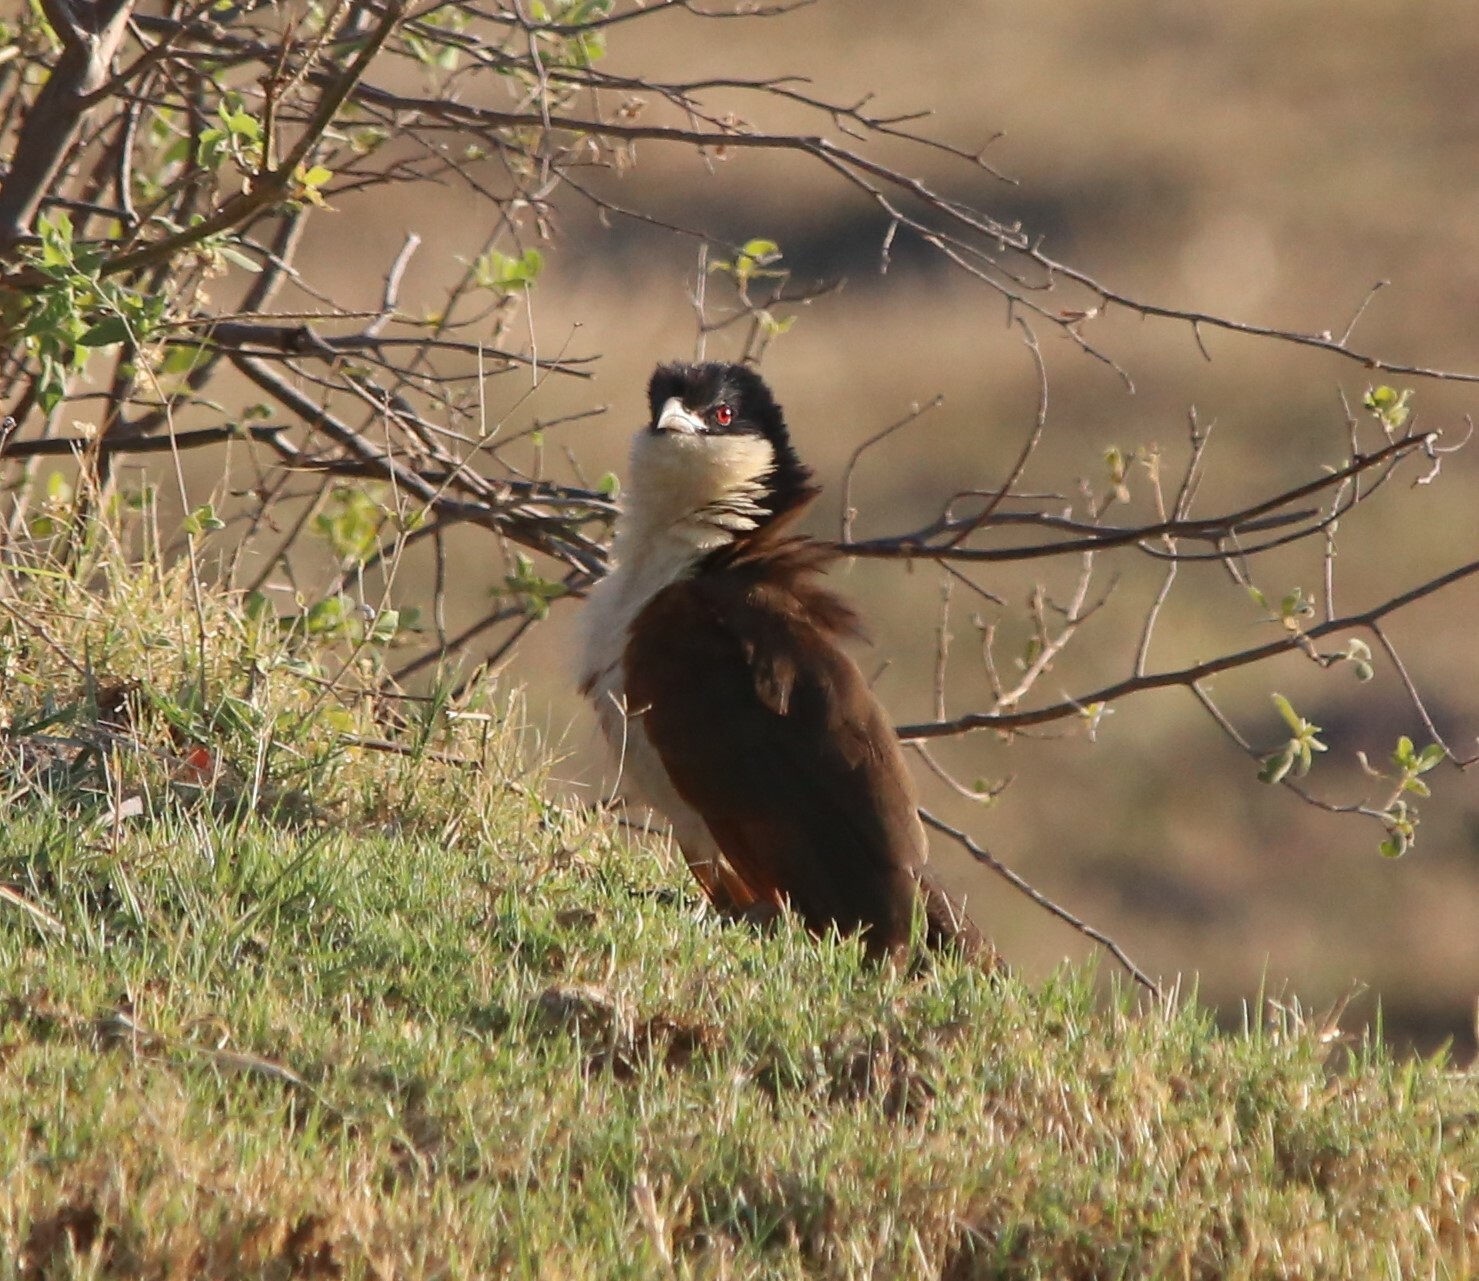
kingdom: Animalia
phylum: Chordata
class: Aves
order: Cuculiformes
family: Cuculidae
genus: Centropus
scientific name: Centropus cupreicaudus
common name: Coppery-tailed coucal
